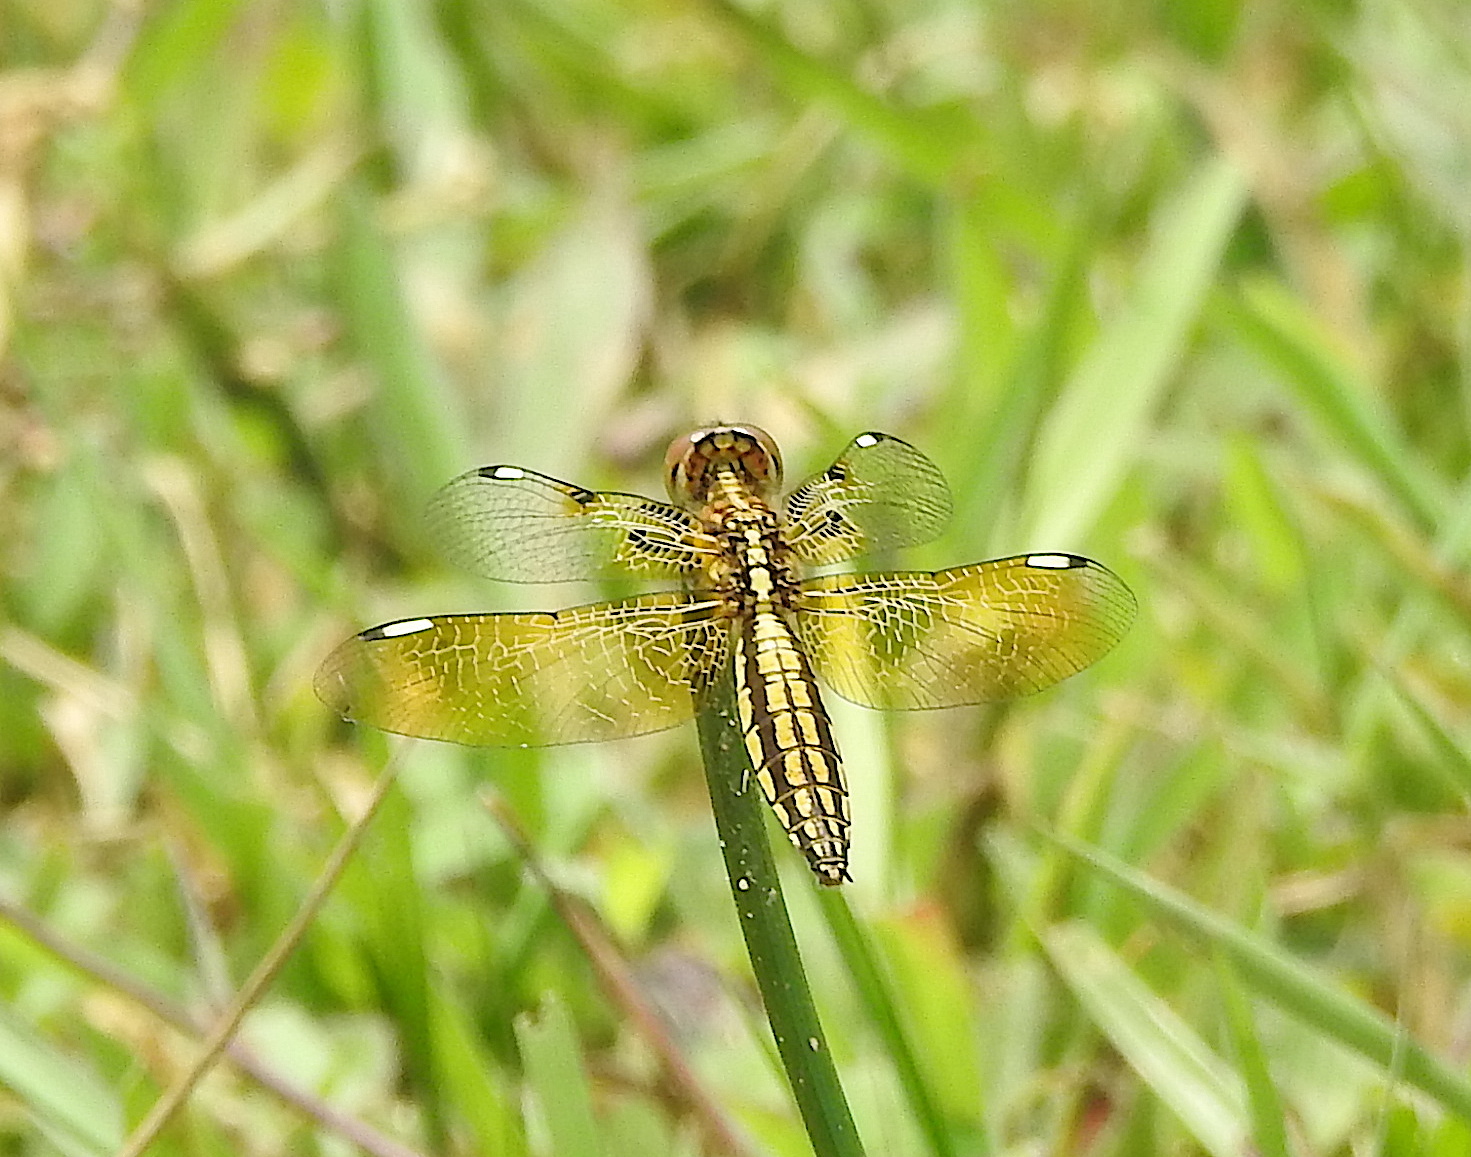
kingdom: Animalia
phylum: Arthropoda
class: Insecta
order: Odonata
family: Libellulidae
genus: Palpopleura
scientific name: Palpopleura sexmaculata
